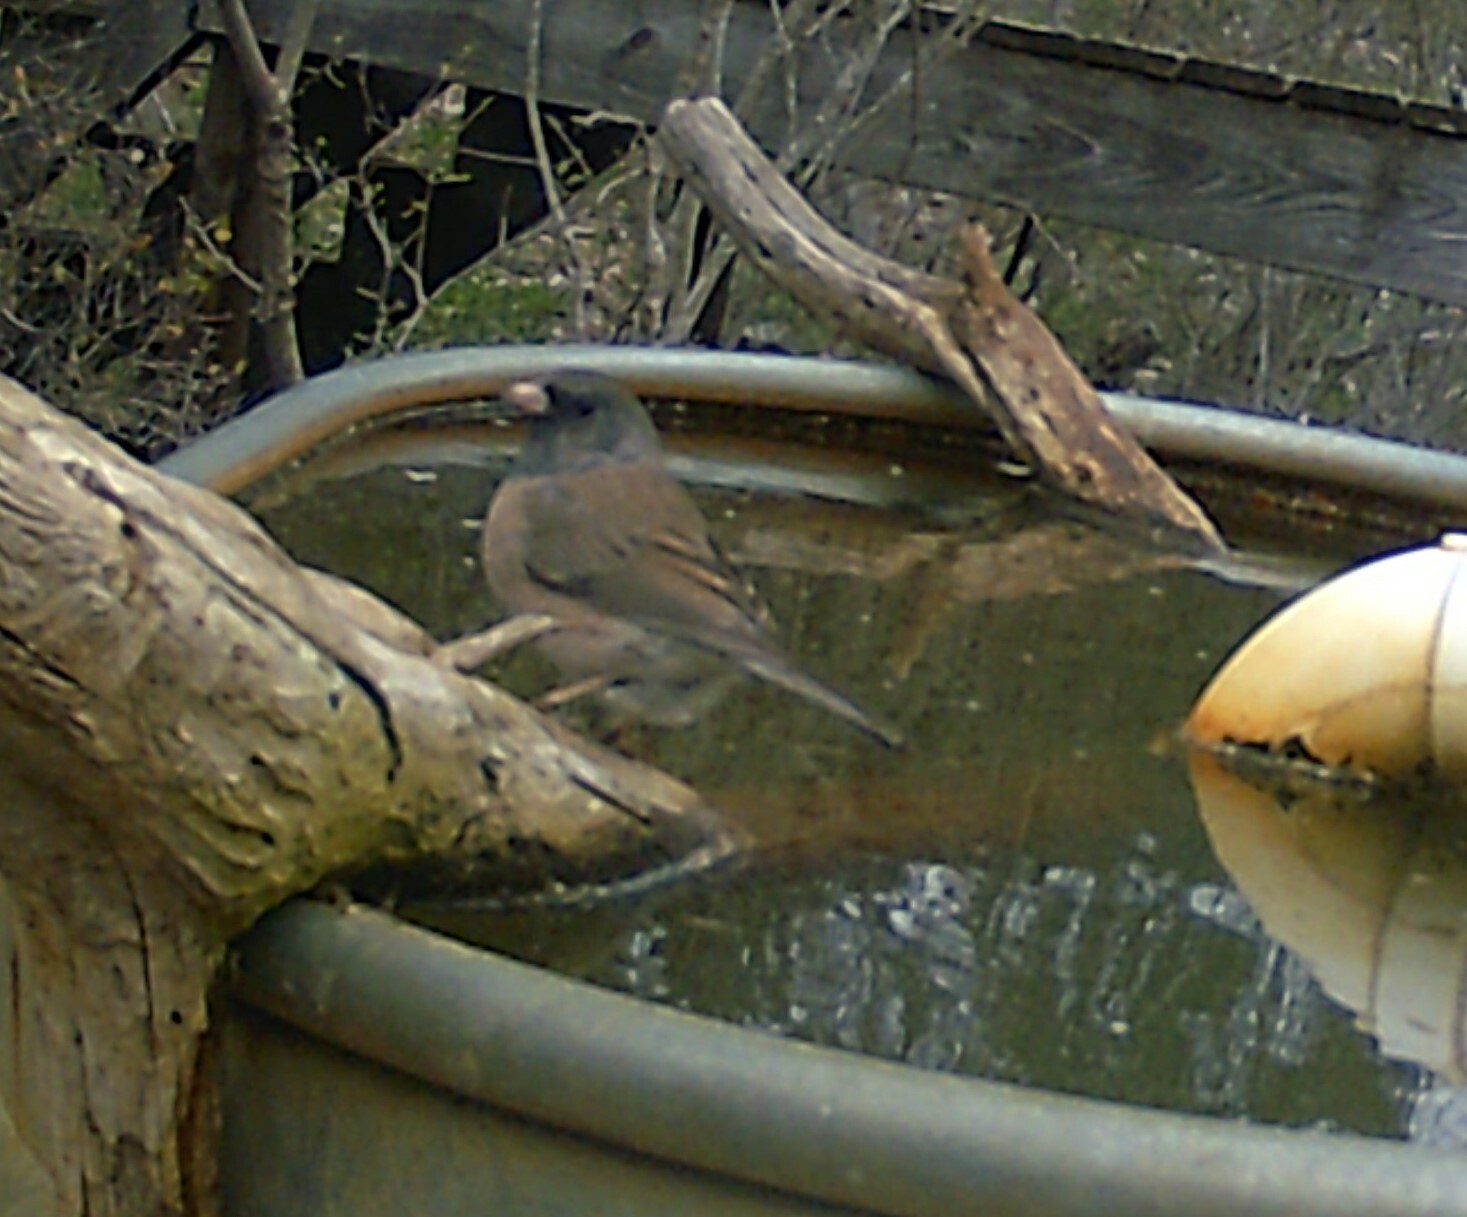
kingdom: Animalia
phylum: Chordata
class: Aves
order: Passeriformes
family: Passerellidae
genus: Junco
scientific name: Junco hyemalis
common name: Dark-eyed junco
